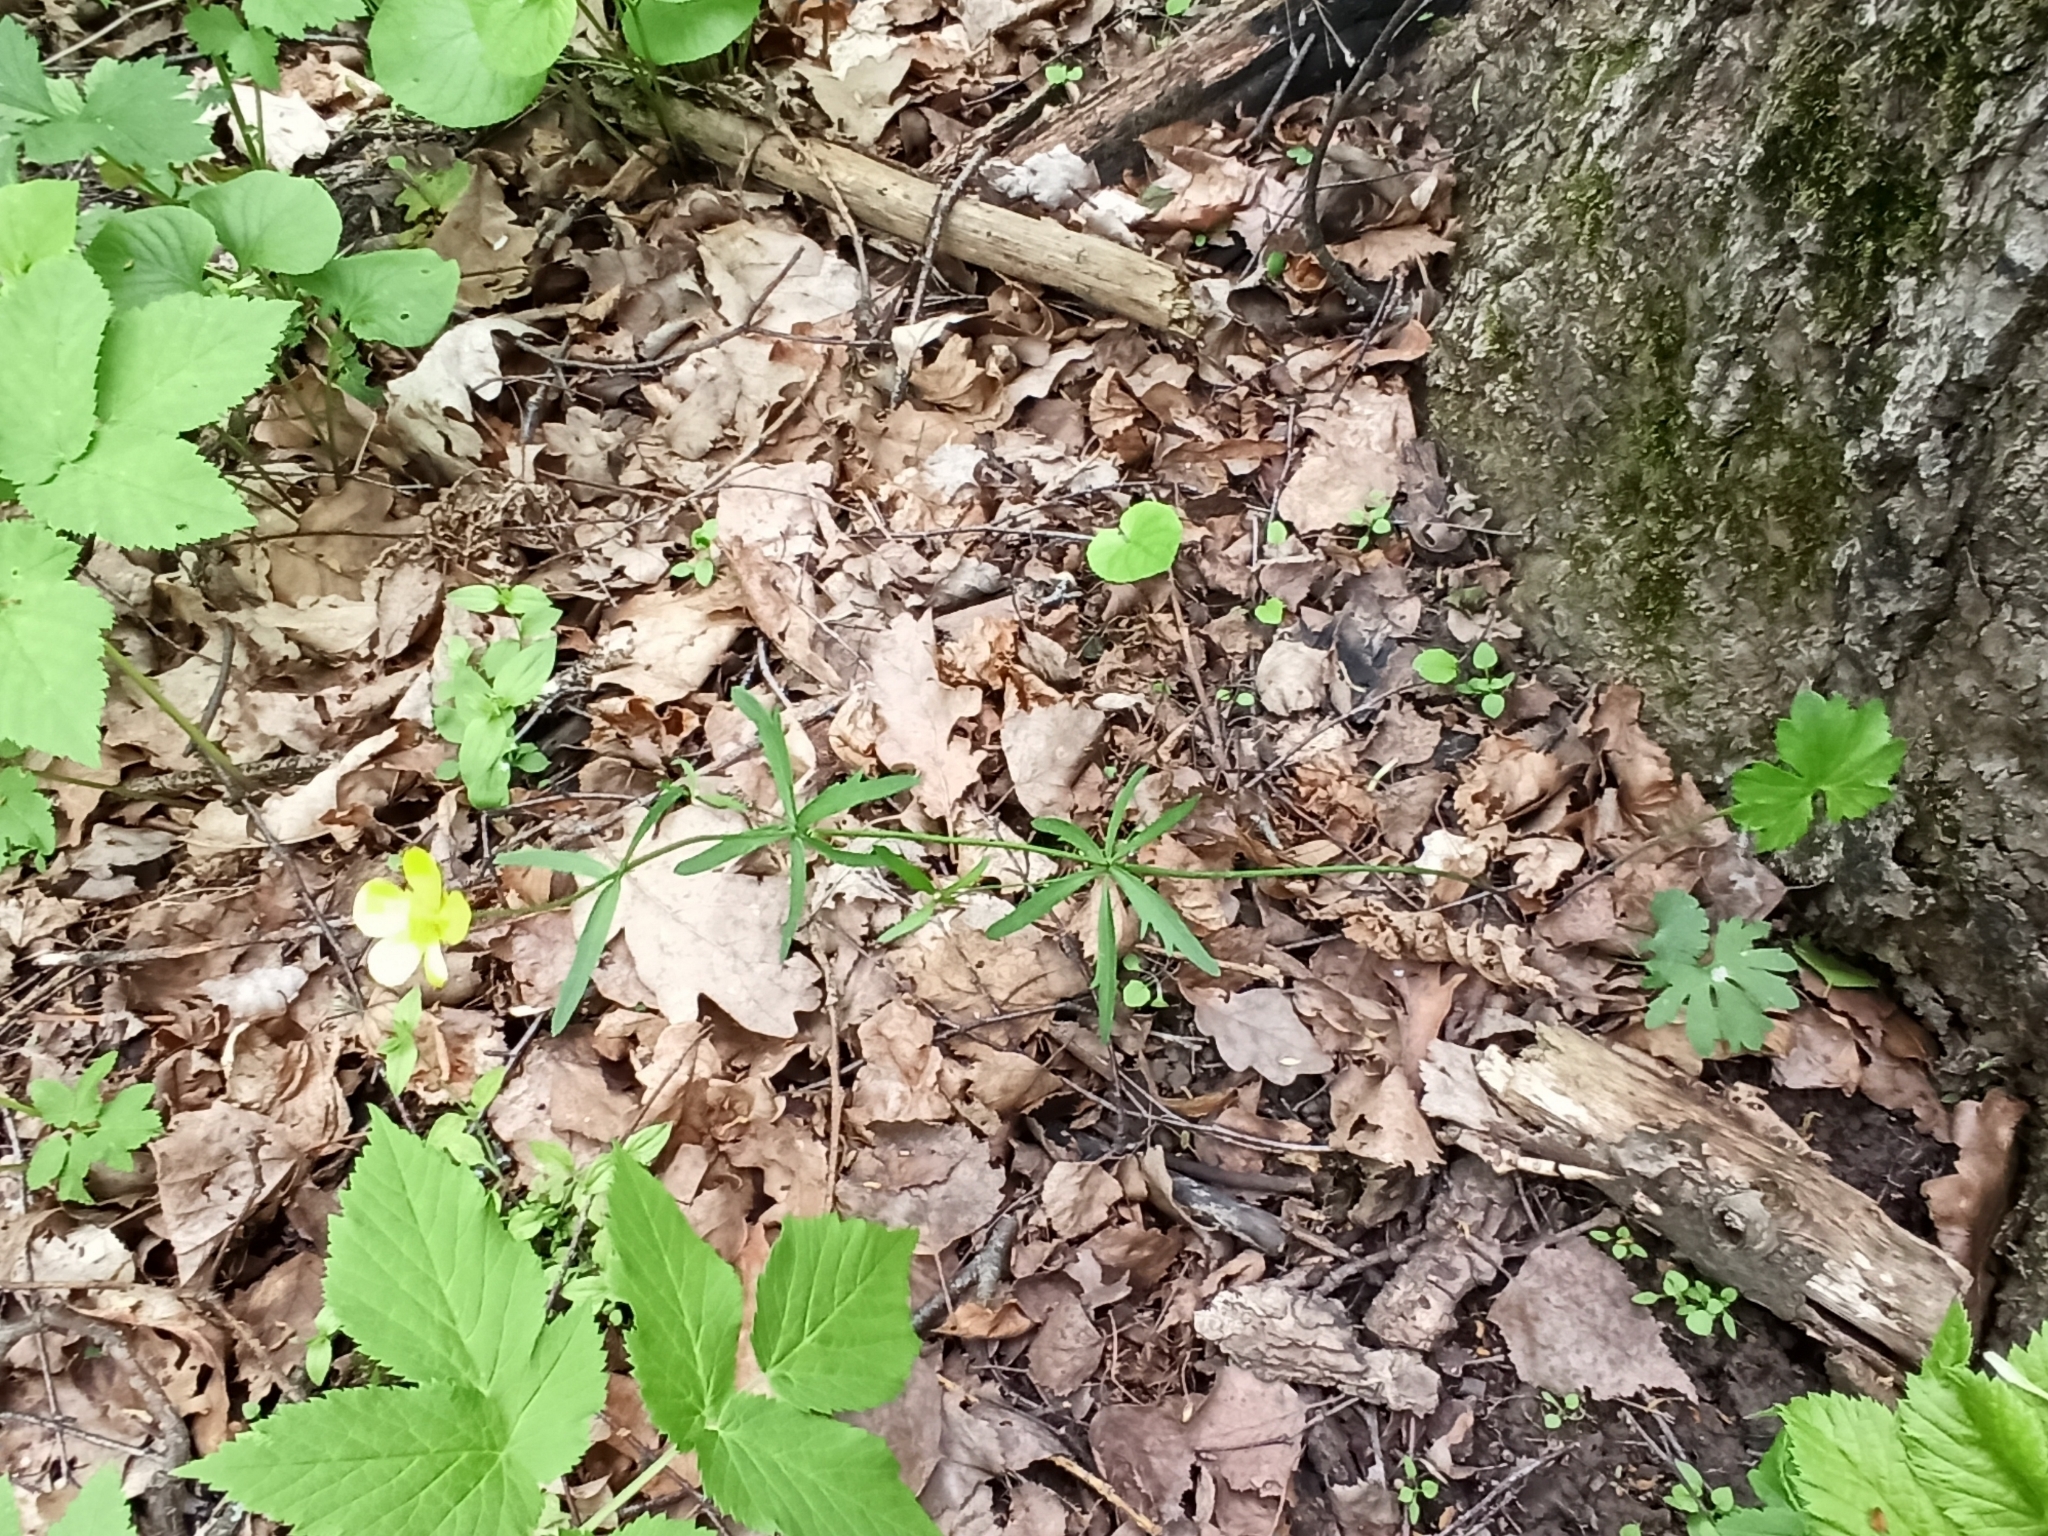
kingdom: Plantae
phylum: Tracheophyta
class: Magnoliopsida
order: Ranunculales
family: Ranunculaceae
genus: Ranunculus
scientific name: Ranunculus auricomus
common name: Goldilocks buttercup
